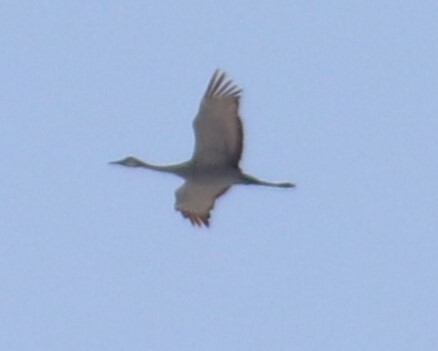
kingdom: Animalia
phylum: Chordata
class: Aves
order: Gruiformes
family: Gruidae
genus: Grus
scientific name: Grus canadensis
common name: Sandhill crane
